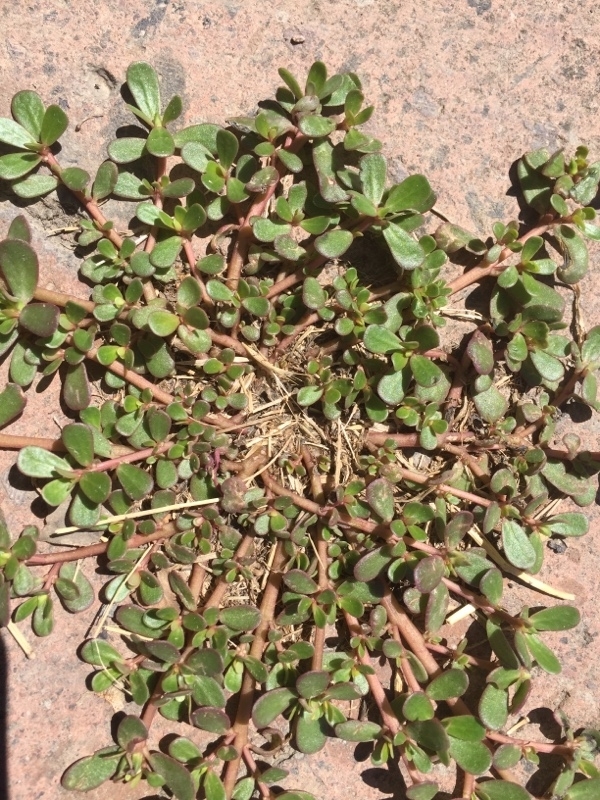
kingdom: Plantae
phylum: Tracheophyta
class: Magnoliopsida
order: Caryophyllales
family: Portulacaceae
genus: Portulaca
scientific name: Portulaca oleracea
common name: Common purslane
